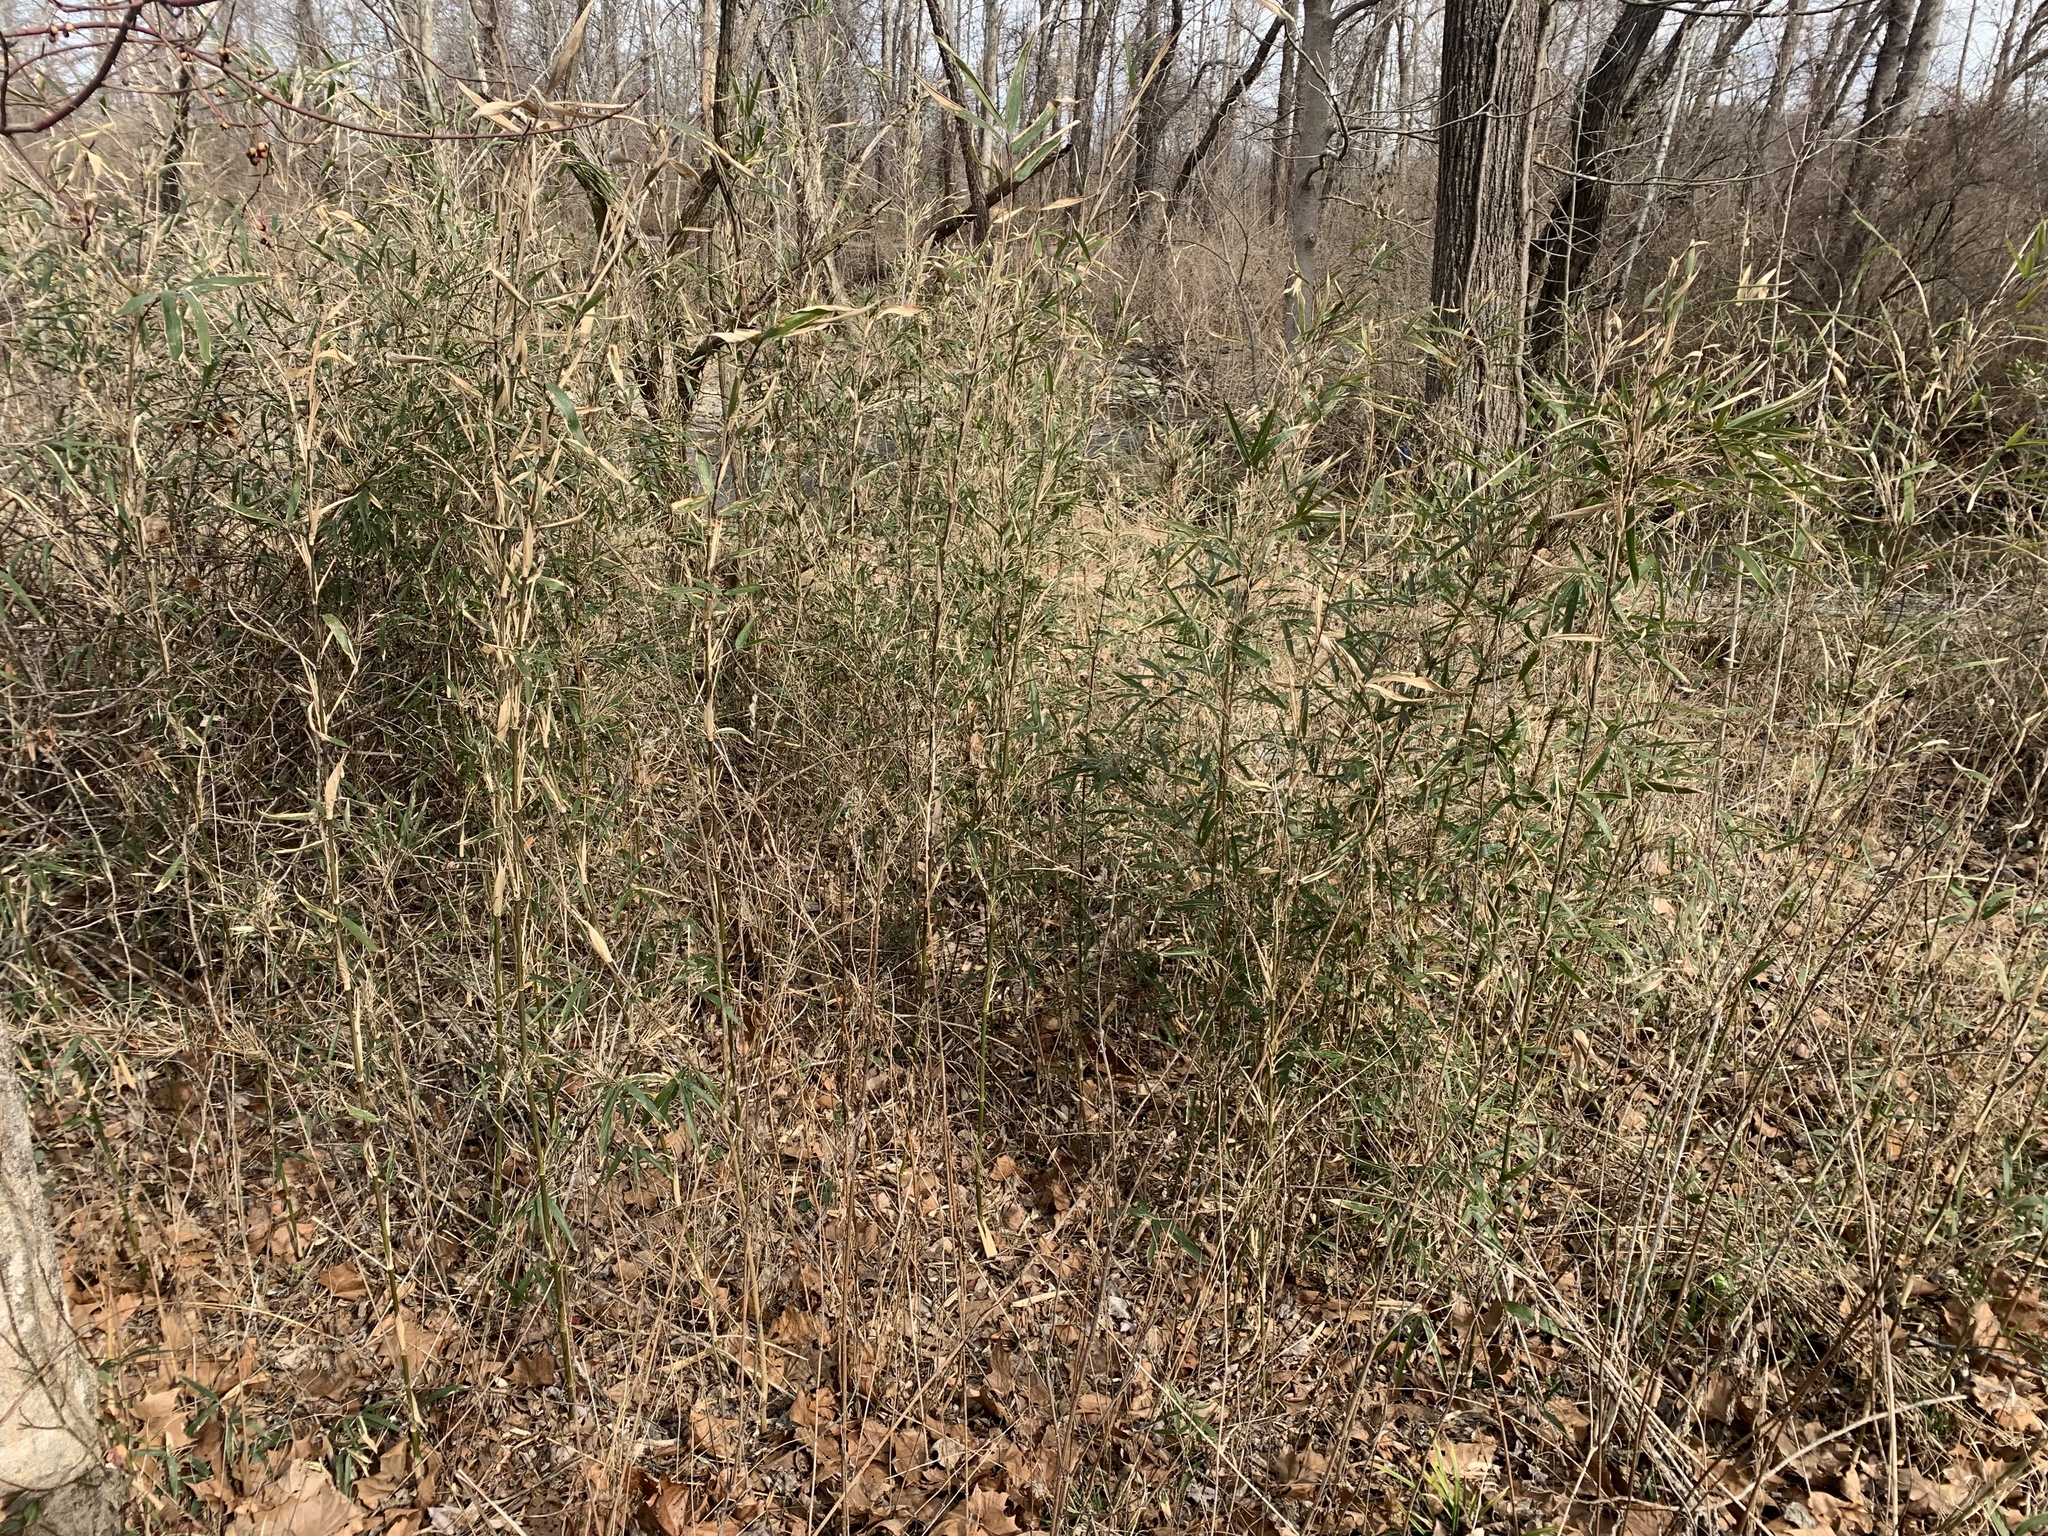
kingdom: Plantae
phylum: Tracheophyta
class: Liliopsida
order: Poales
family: Poaceae
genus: Arundinaria
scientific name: Arundinaria gigantea
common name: Giant cane
